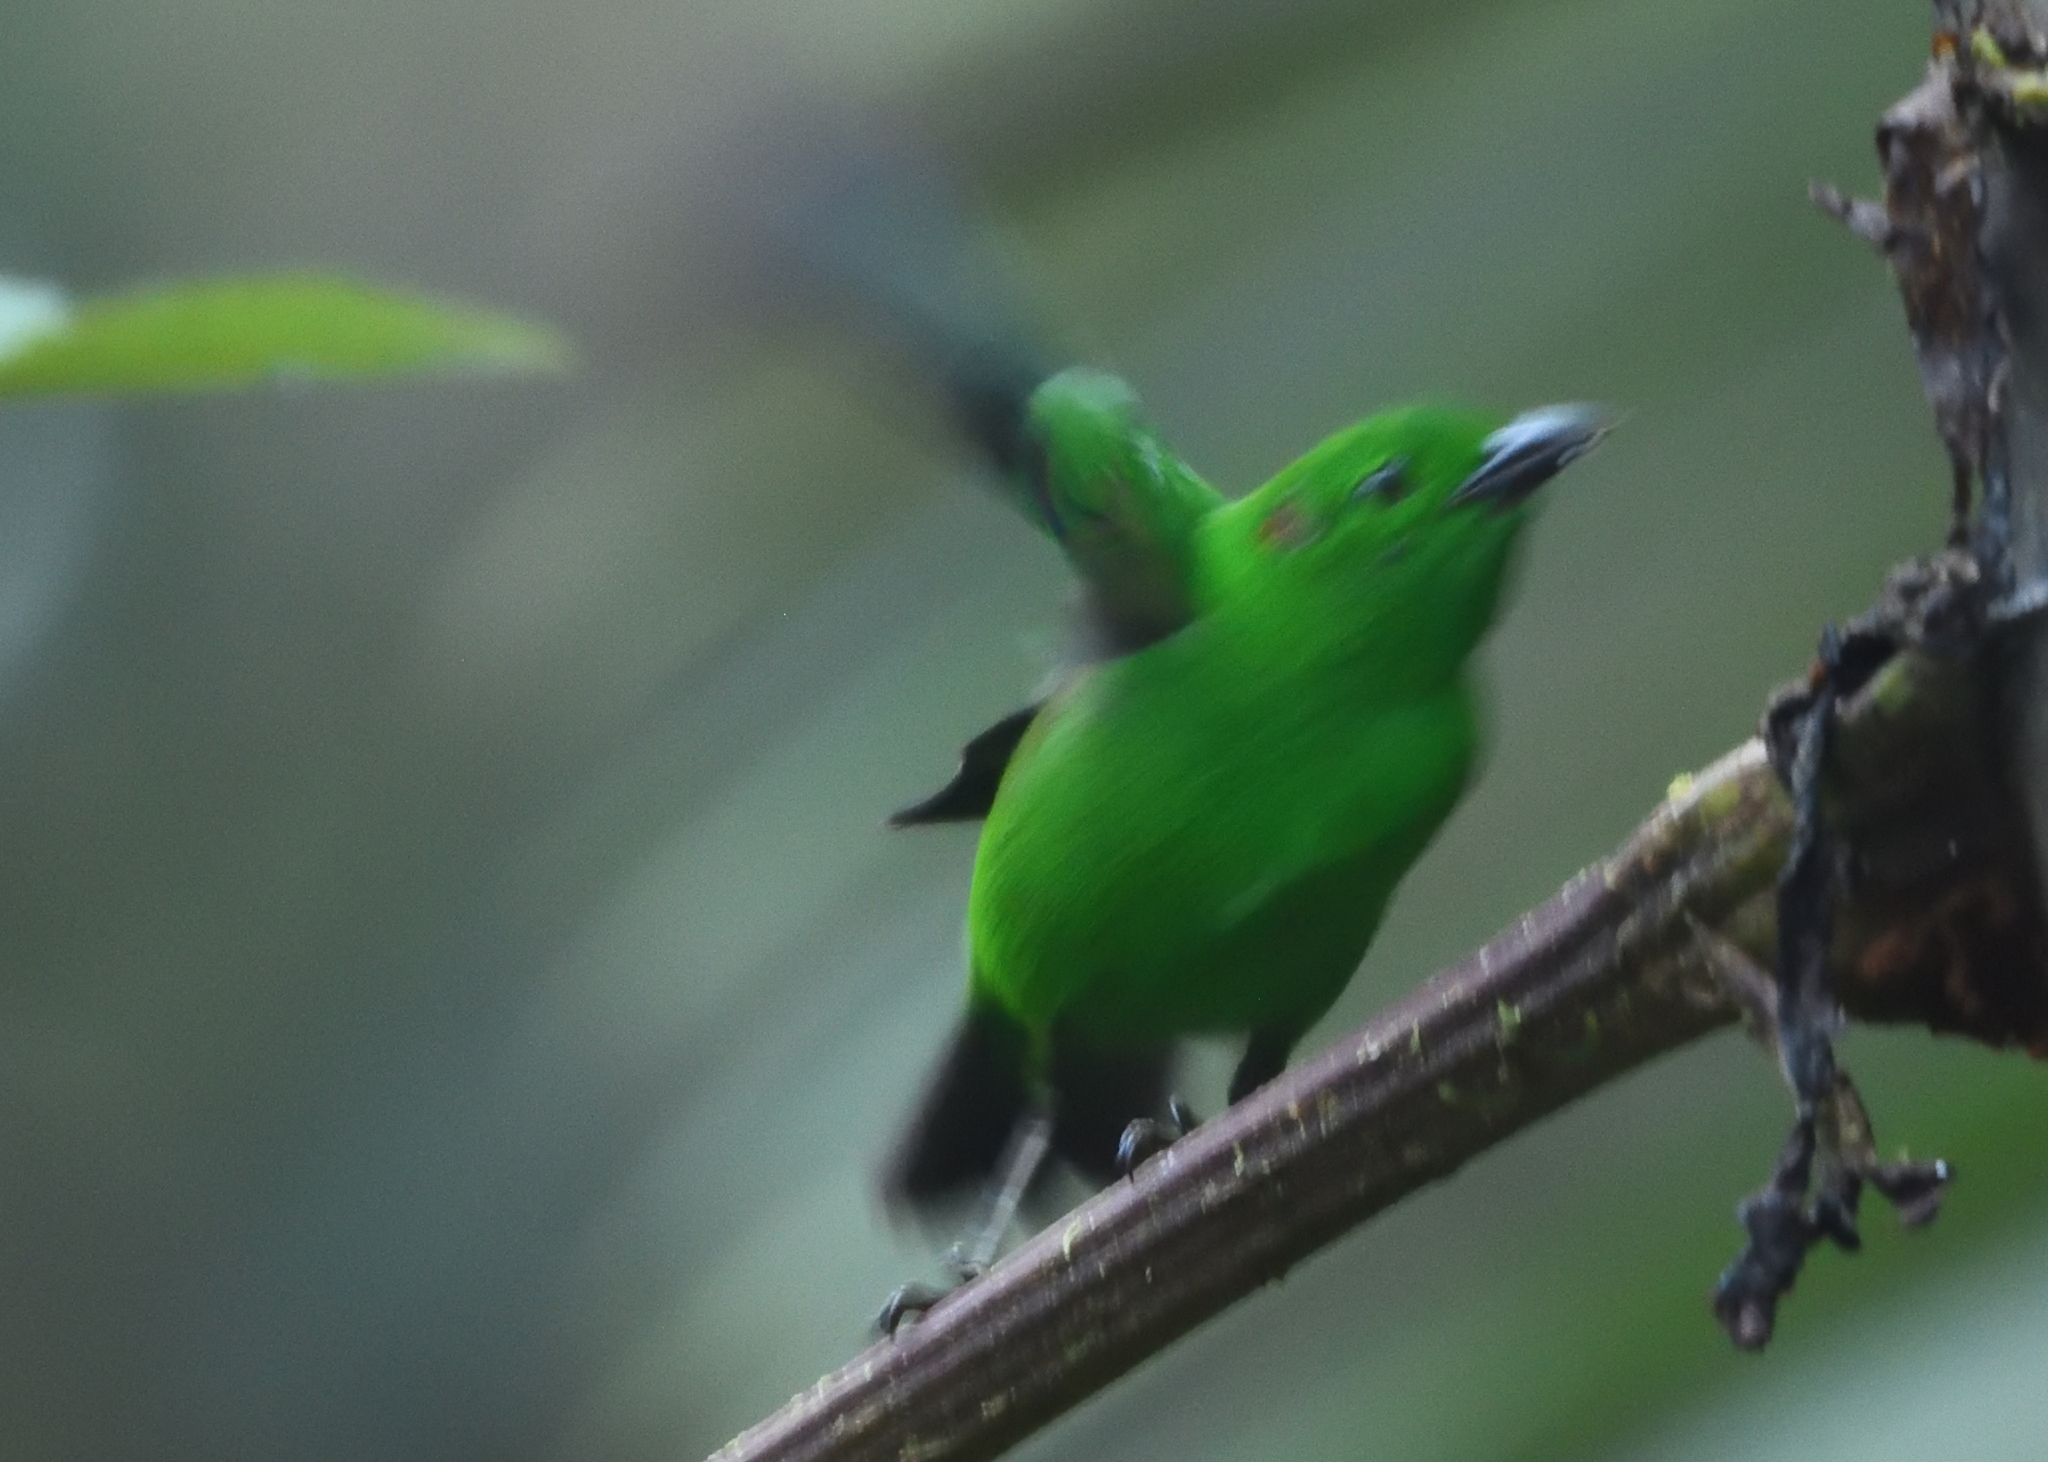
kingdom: Animalia
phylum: Chordata
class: Aves
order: Passeriformes
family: Thraupidae
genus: Chlorochrysa
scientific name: Chlorochrysa phoenicotis
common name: Glistening-green tanager
